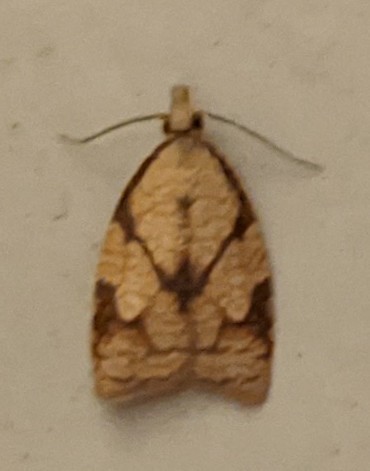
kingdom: Animalia
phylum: Arthropoda
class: Insecta
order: Lepidoptera
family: Tortricidae
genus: Cenopis
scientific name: Cenopis reticulatana
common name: Reticulated fruitworm moth
